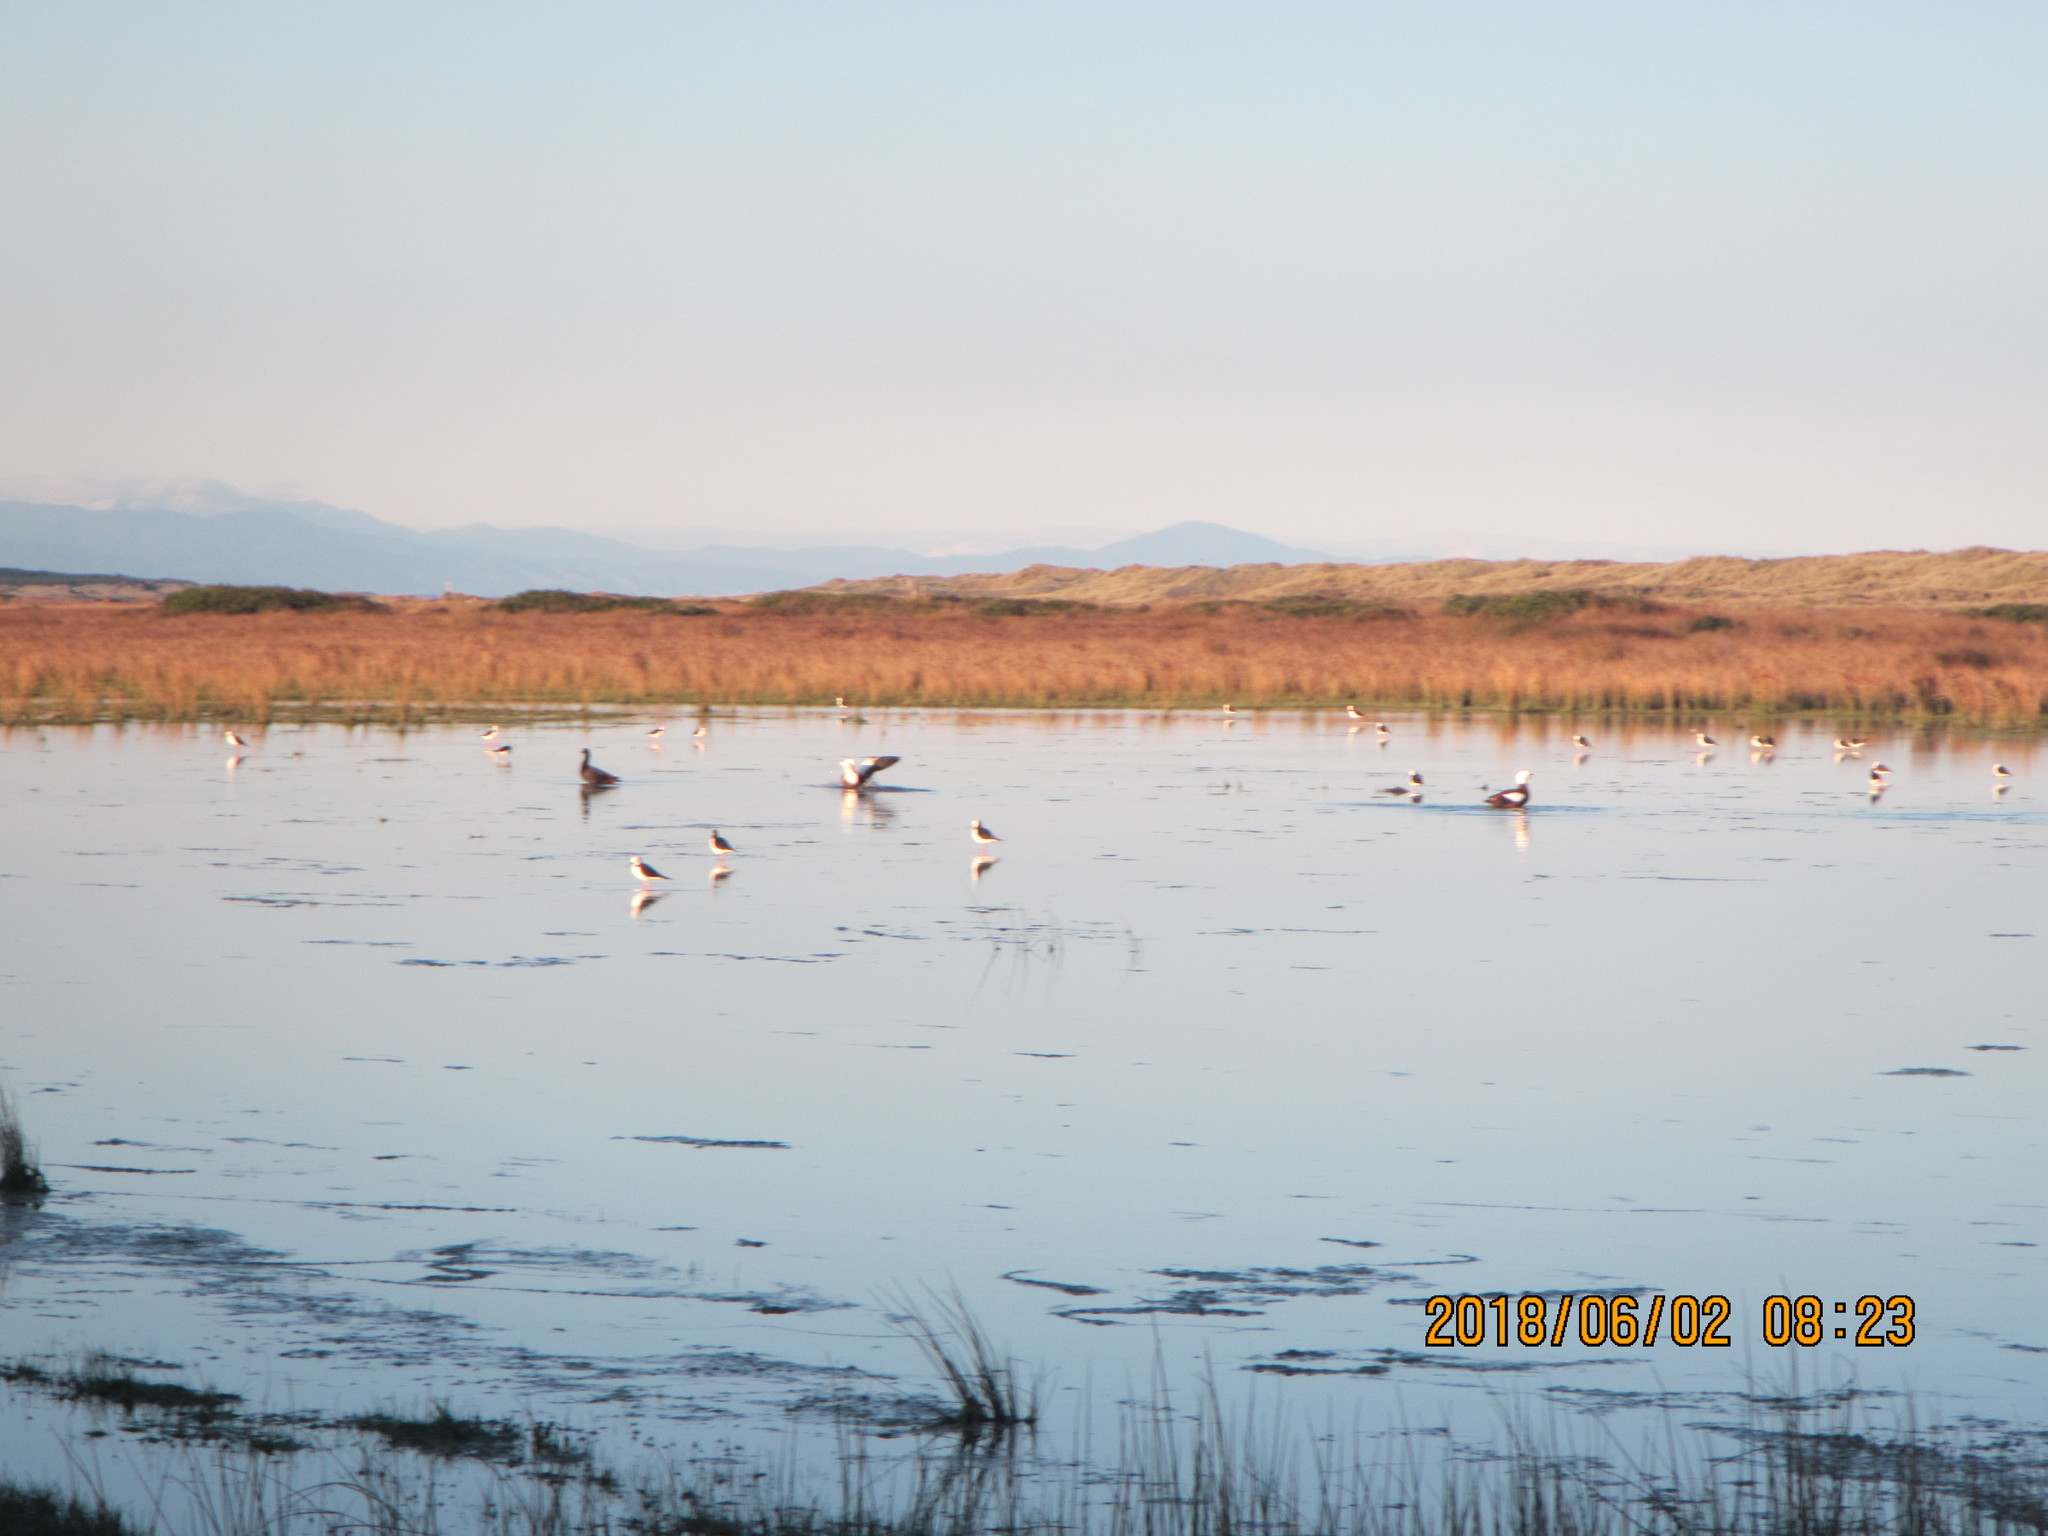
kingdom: Animalia
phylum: Chordata
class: Aves
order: Charadriiformes
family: Recurvirostridae
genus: Himantopus
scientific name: Himantopus leucocephalus
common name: White-headed stilt
